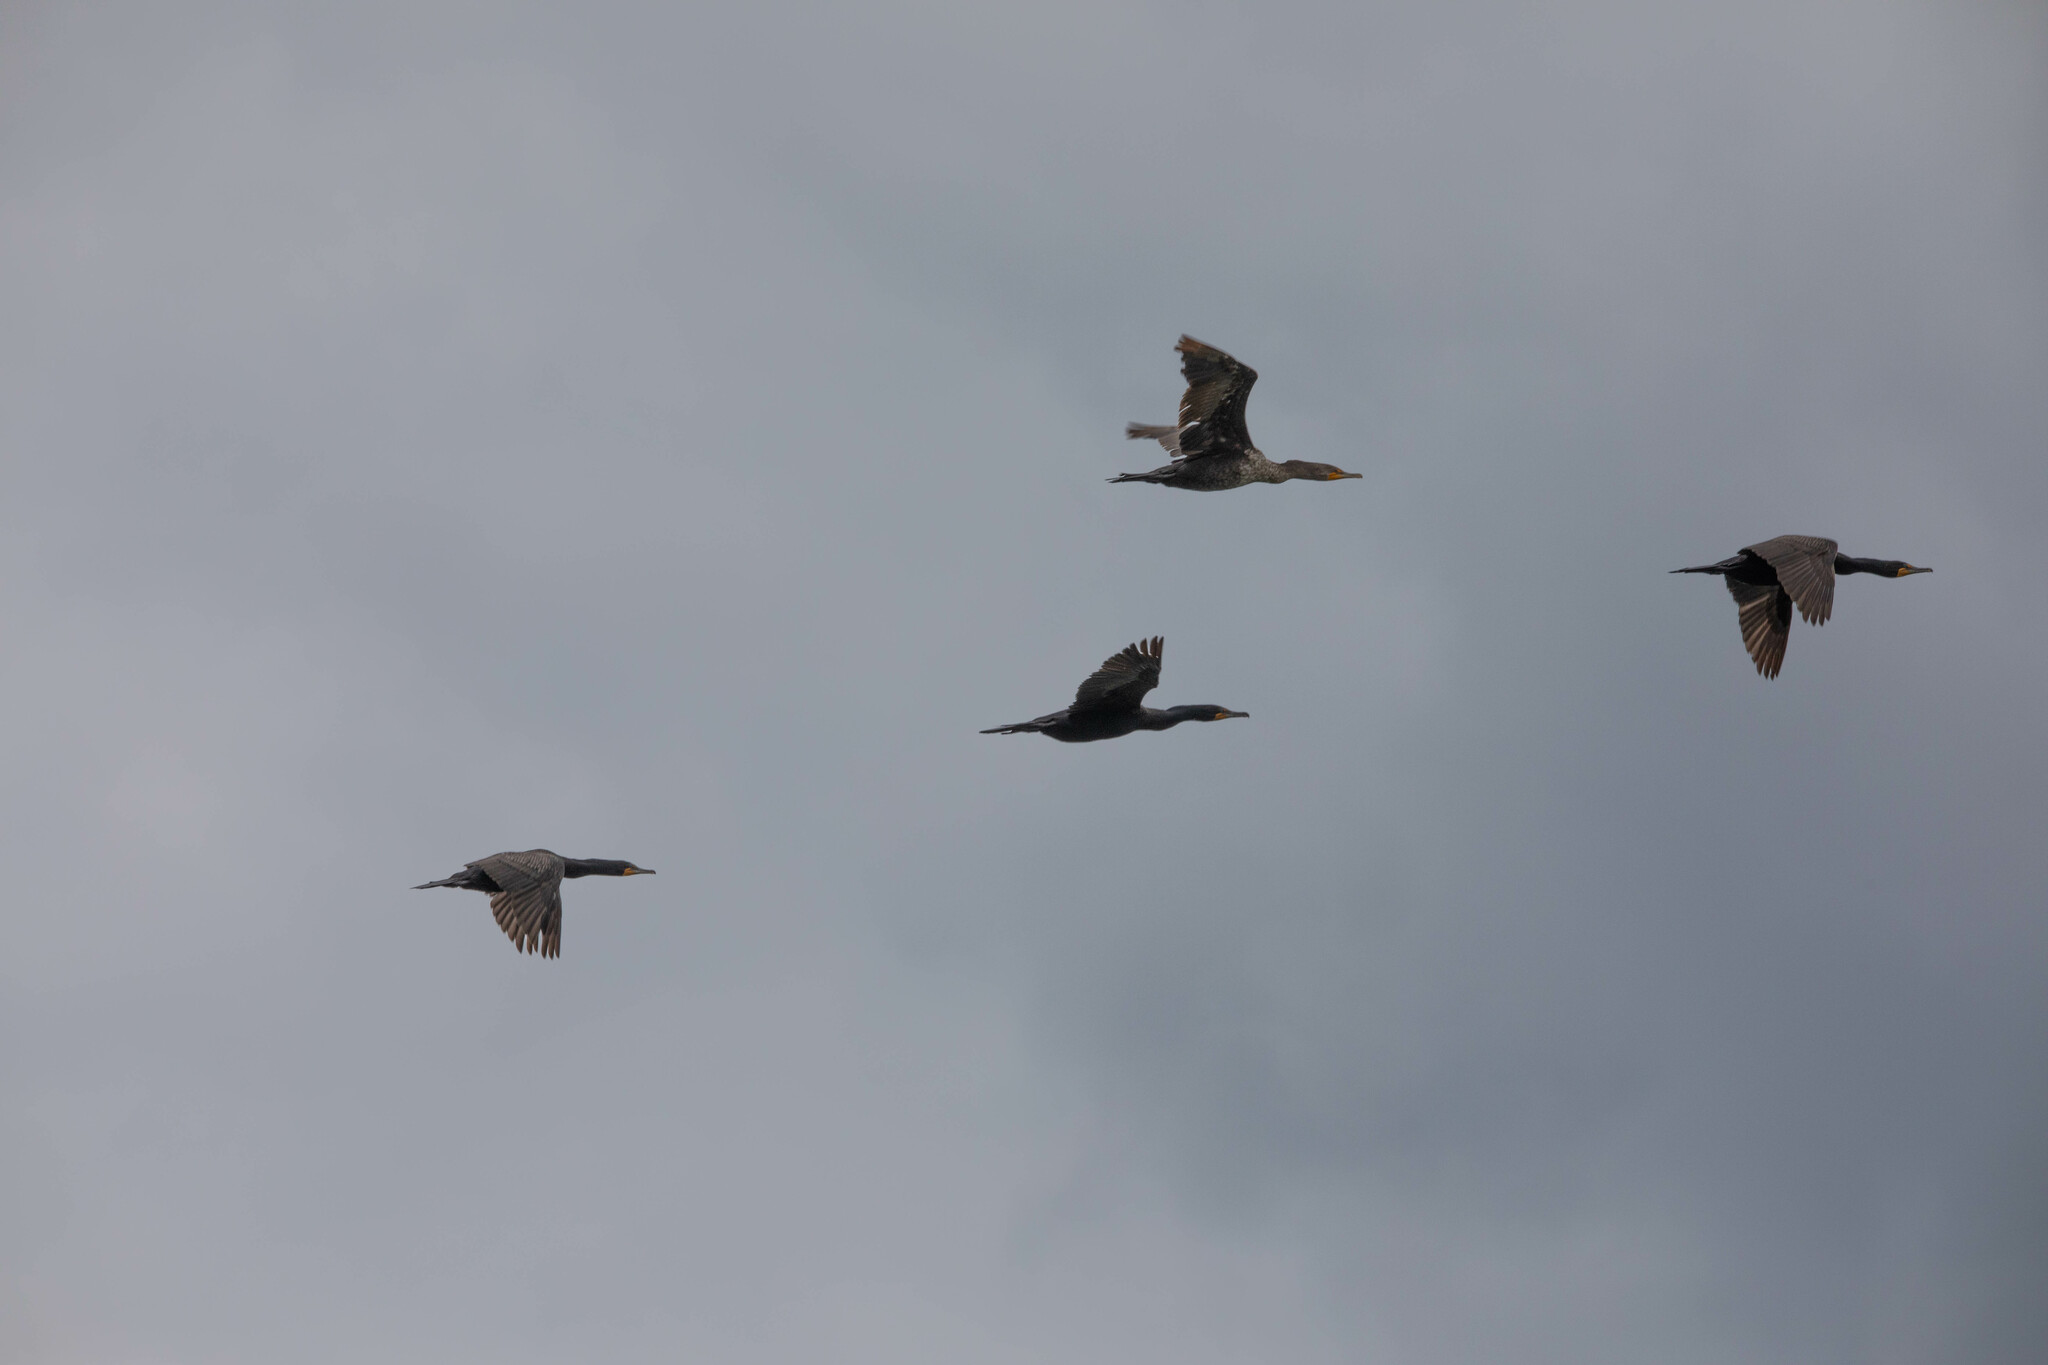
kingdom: Animalia
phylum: Chordata
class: Aves
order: Suliformes
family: Phalacrocoracidae
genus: Phalacrocorax
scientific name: Phalacrocorax auritus
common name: Double-crested cormorant
